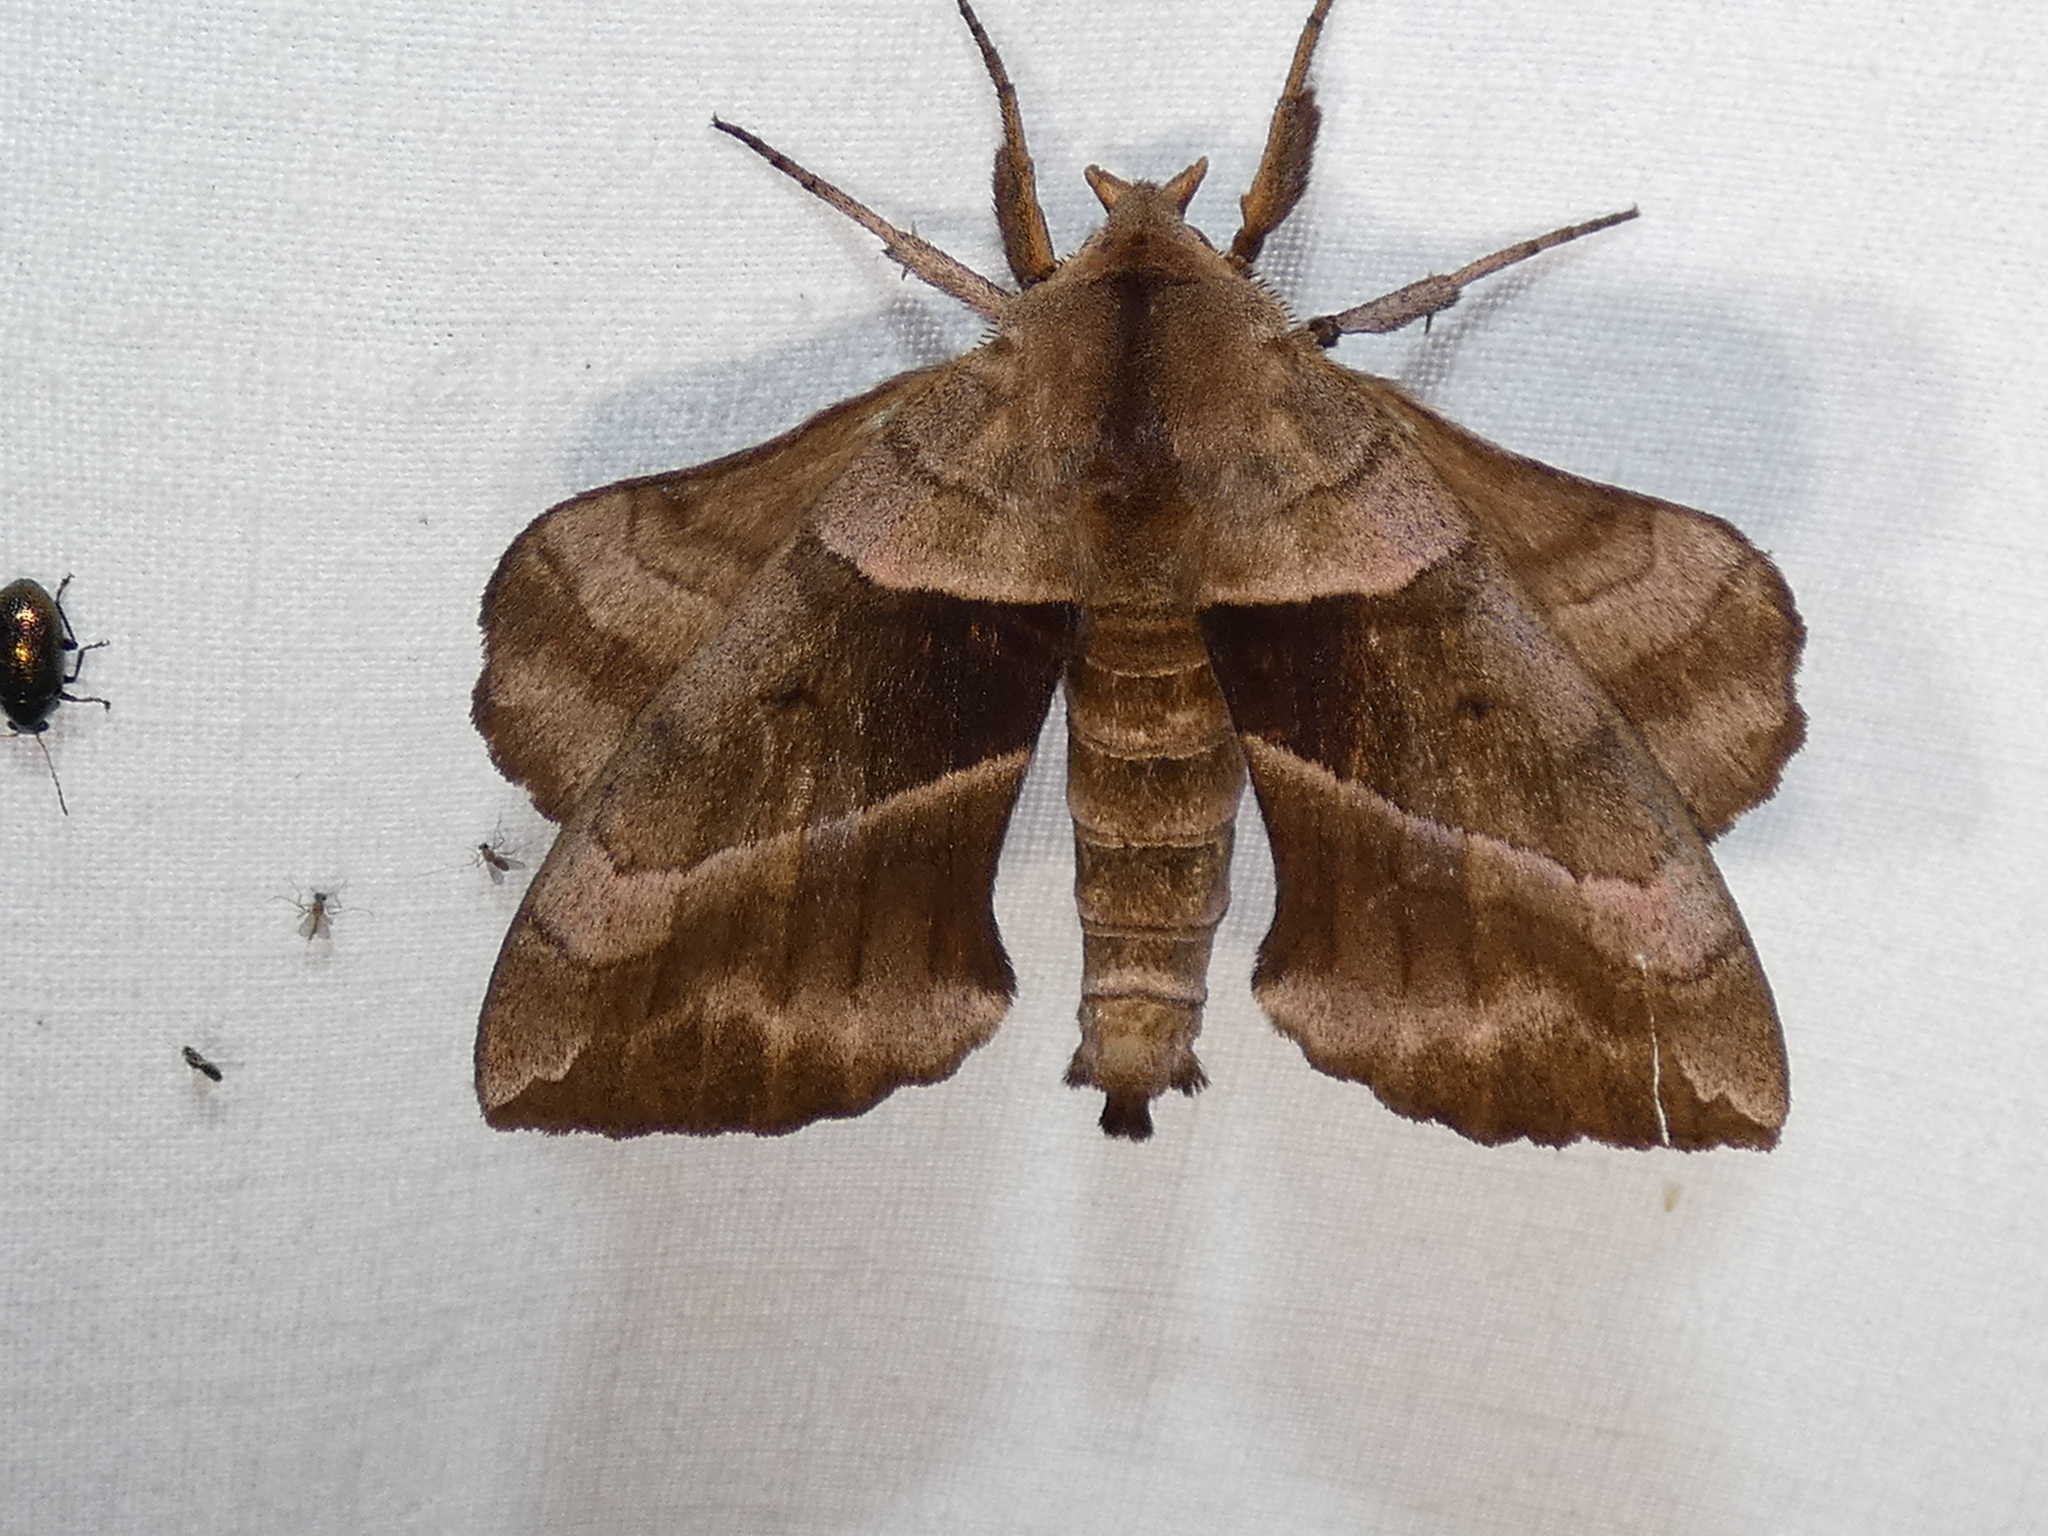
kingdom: Animalia
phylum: Arthropoda
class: Insecta
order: Lepidoptera
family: Sphingidae
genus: Amorpha
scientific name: Amorpha juglandis
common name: Walnut sphinx
